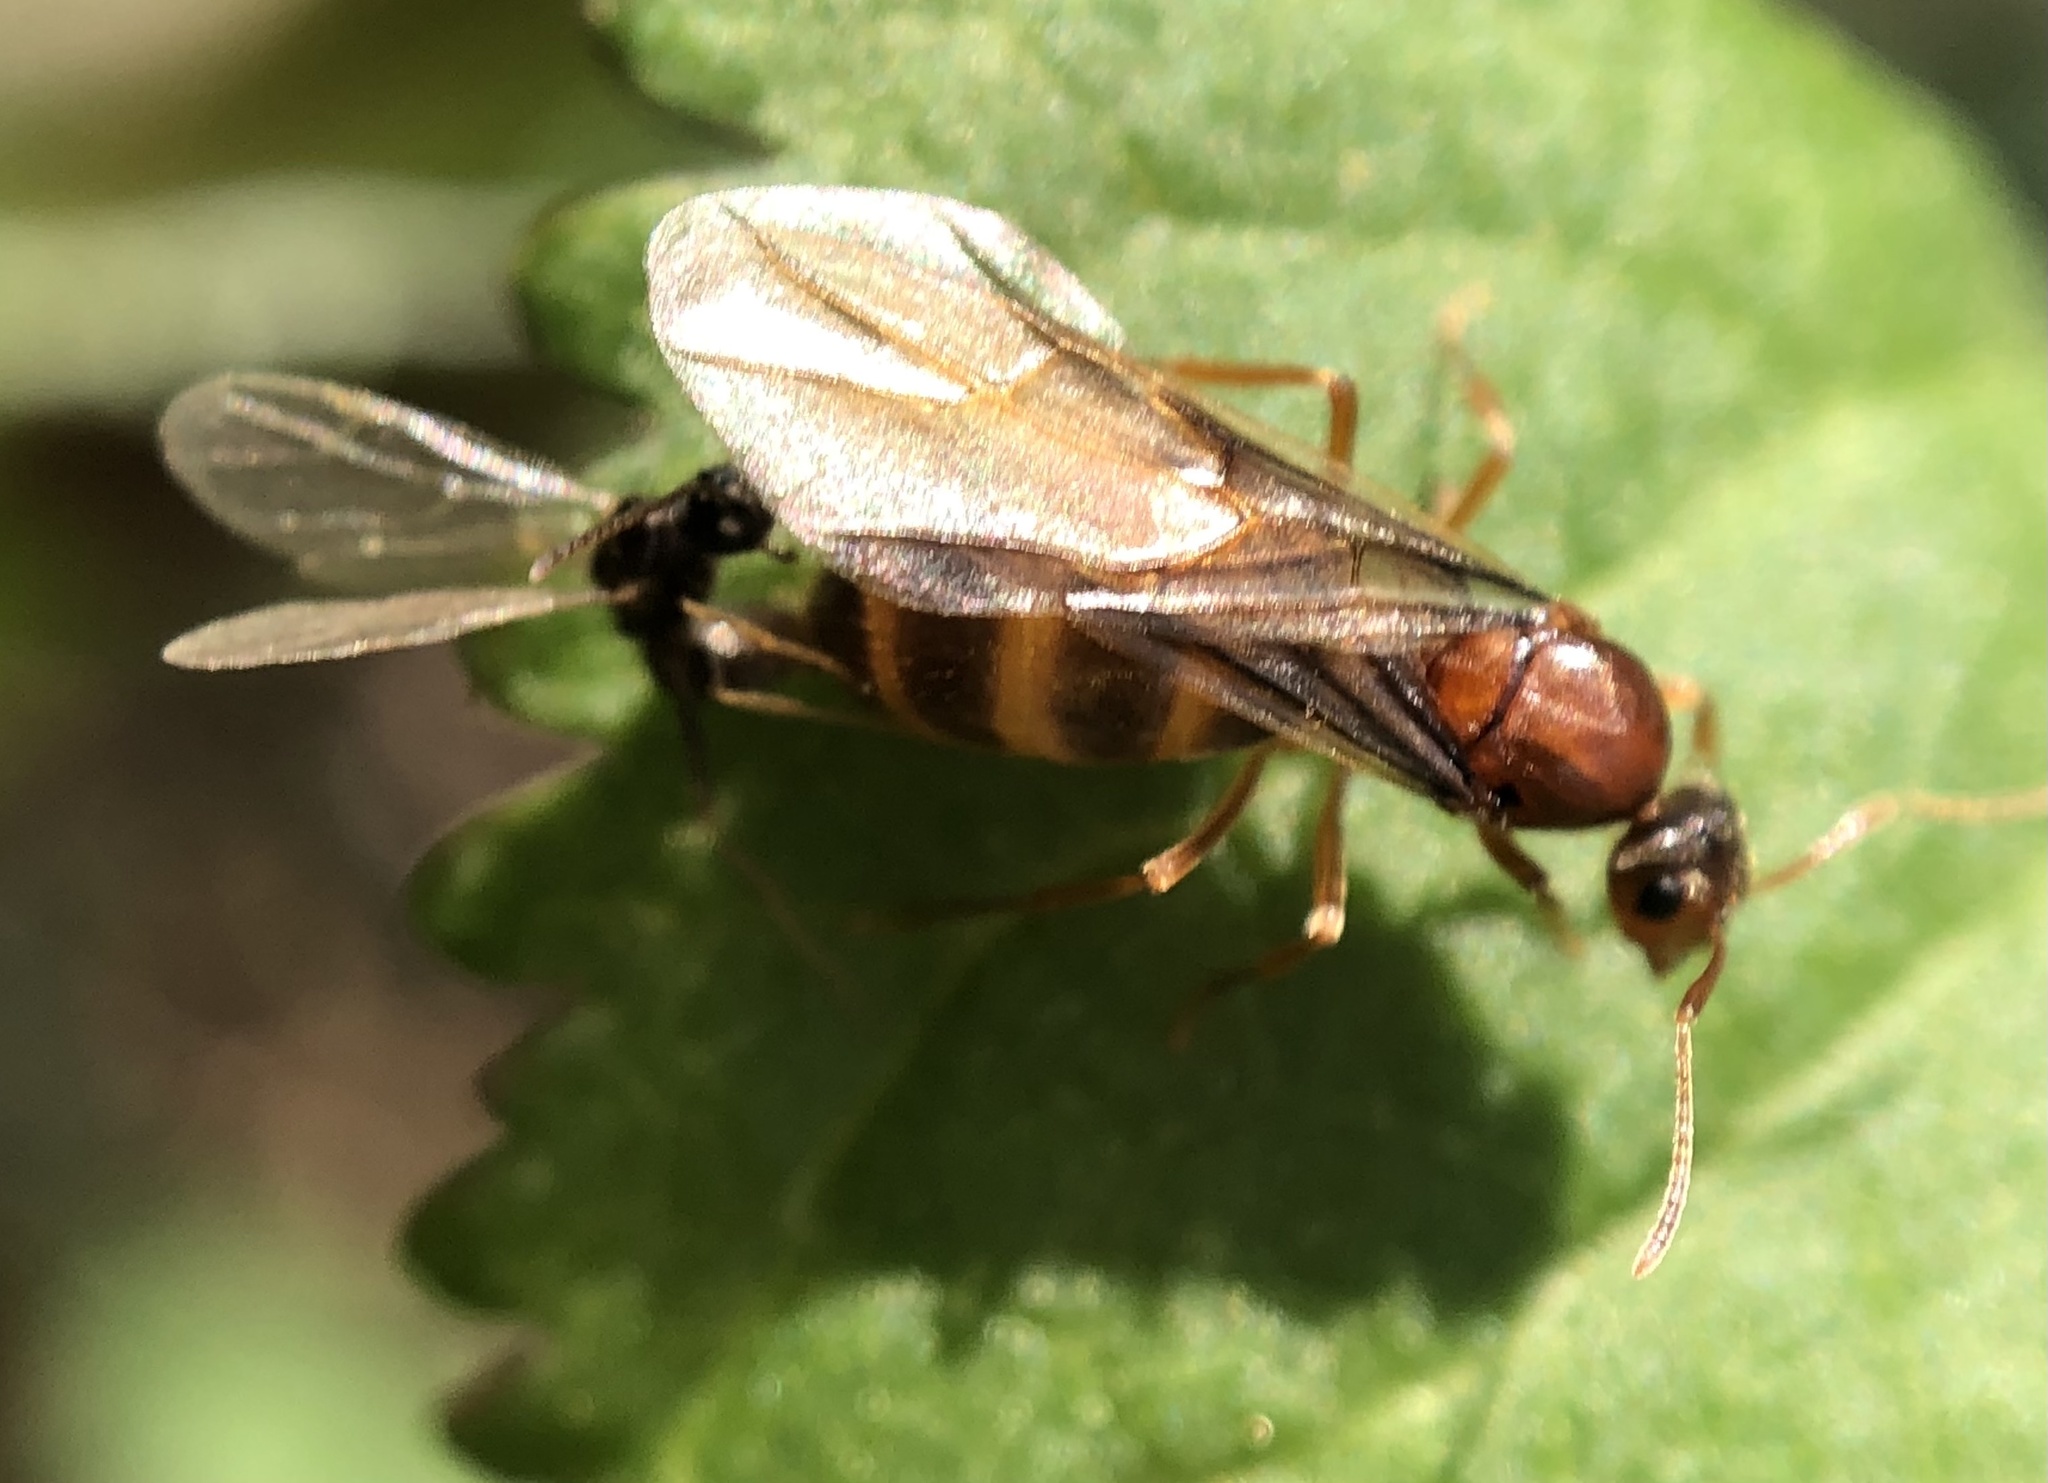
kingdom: Animalia
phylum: Arthropoda
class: Insecta
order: Hymenoptera
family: Formicidae
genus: Prenolepis
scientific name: Prenolepis imparis
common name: Small honey ant
